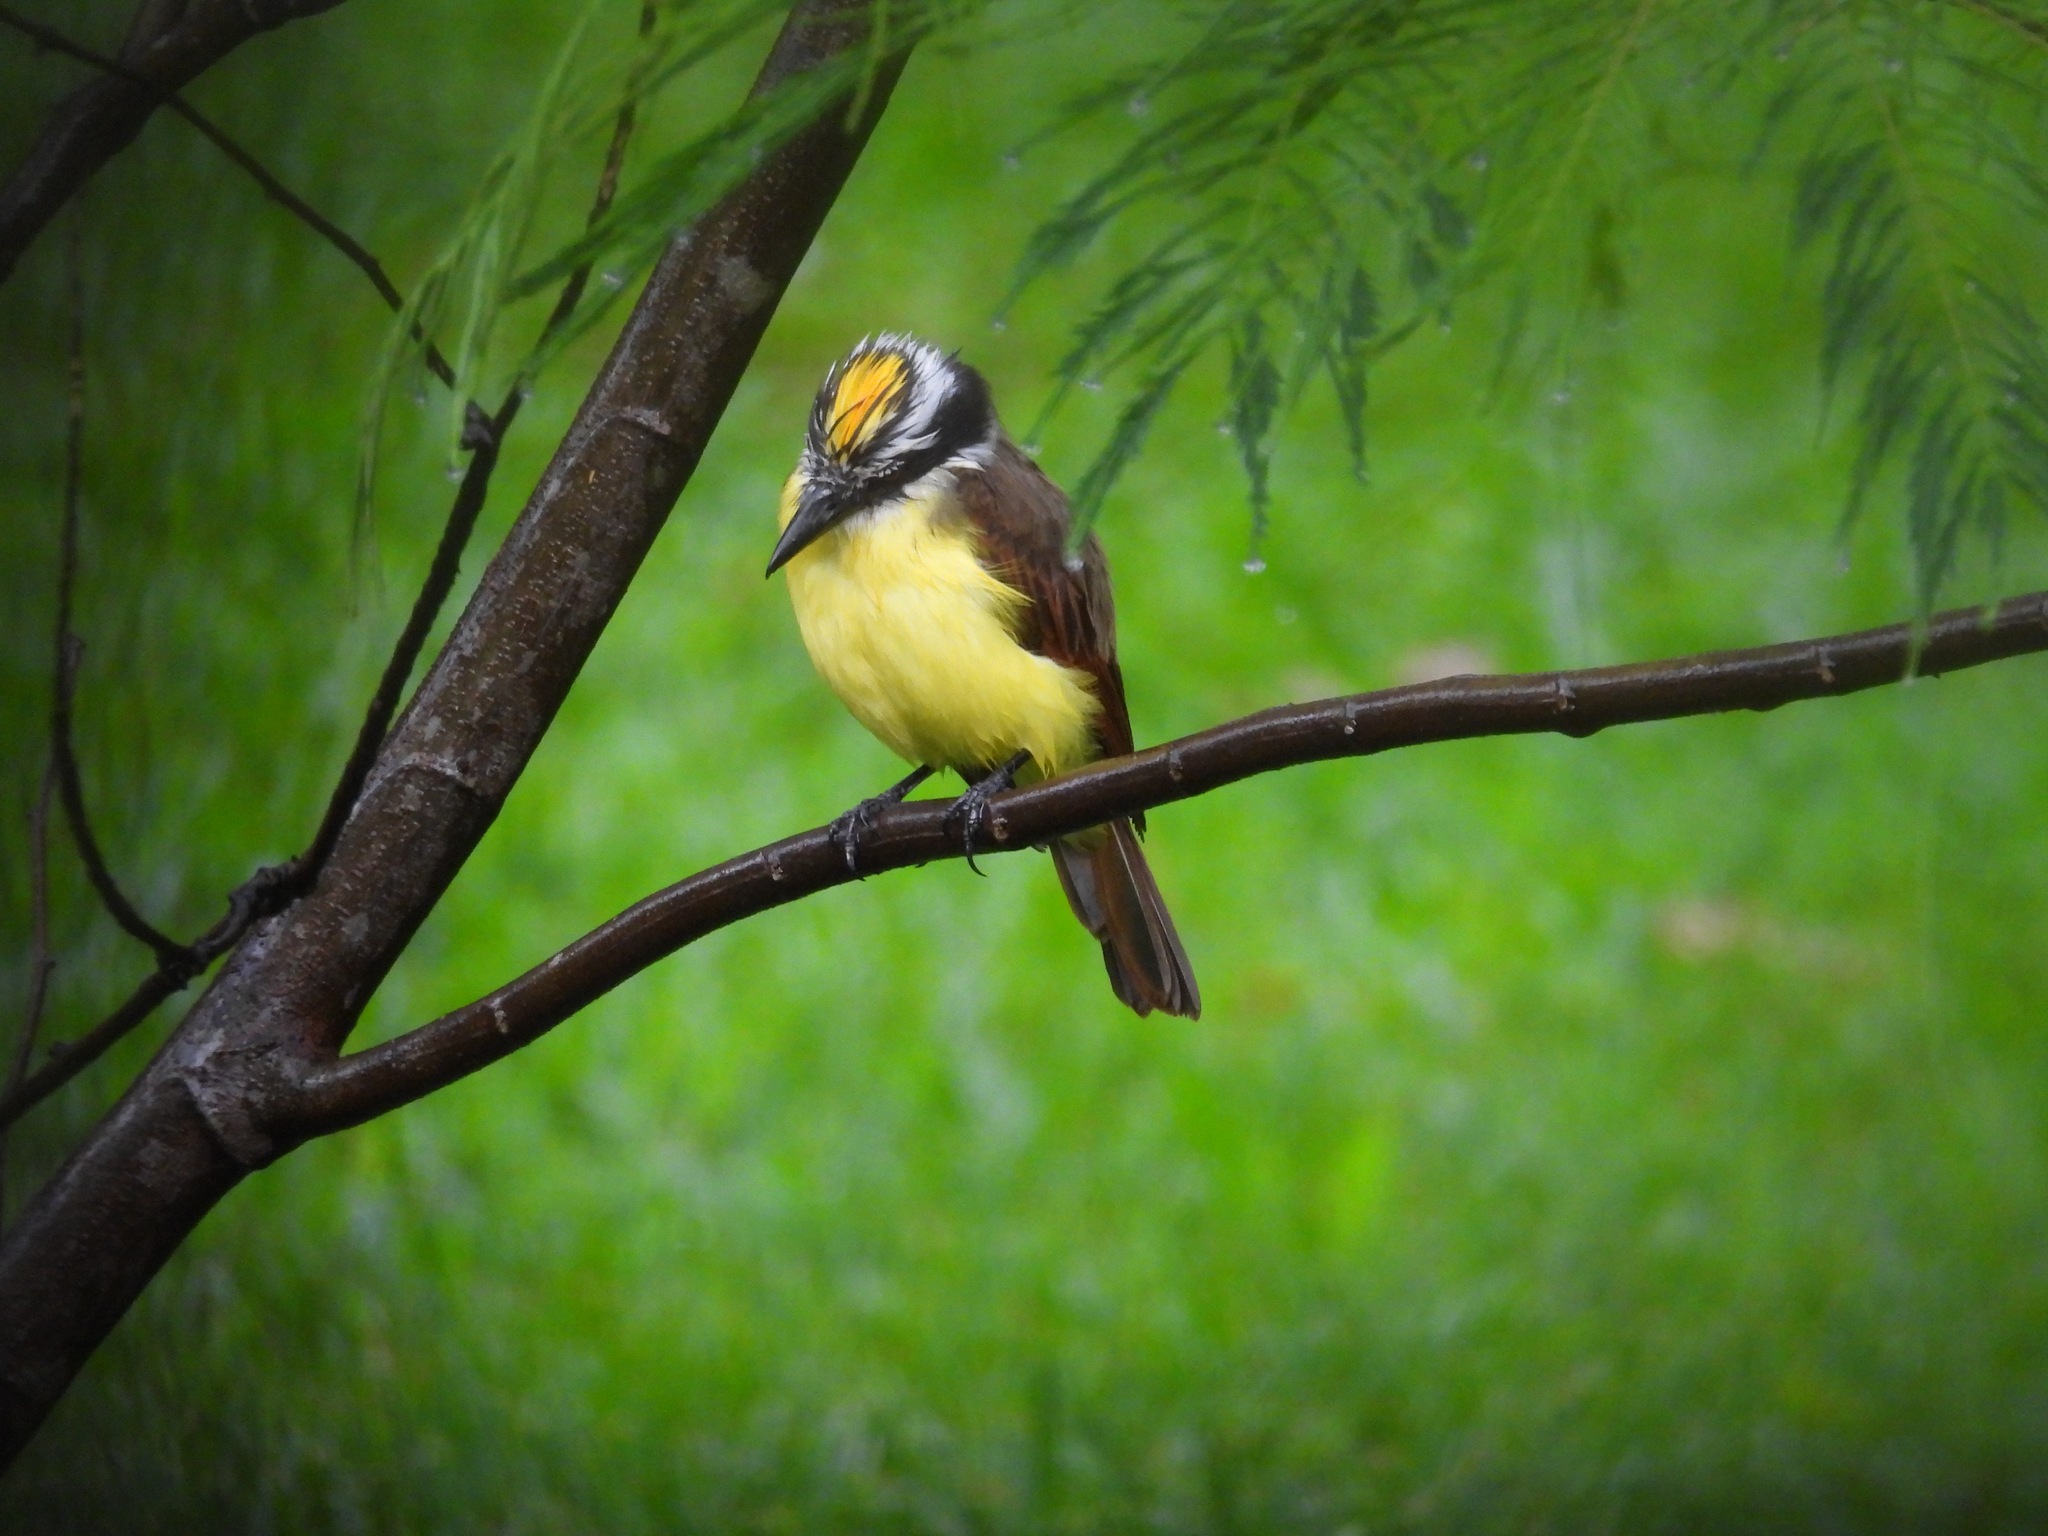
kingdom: Animalia
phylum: Chordata
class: Aves
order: Passeriformes
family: Tyrannidae
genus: Pitangus
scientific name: Pitangus sulphuratus
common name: Great kiskadee
